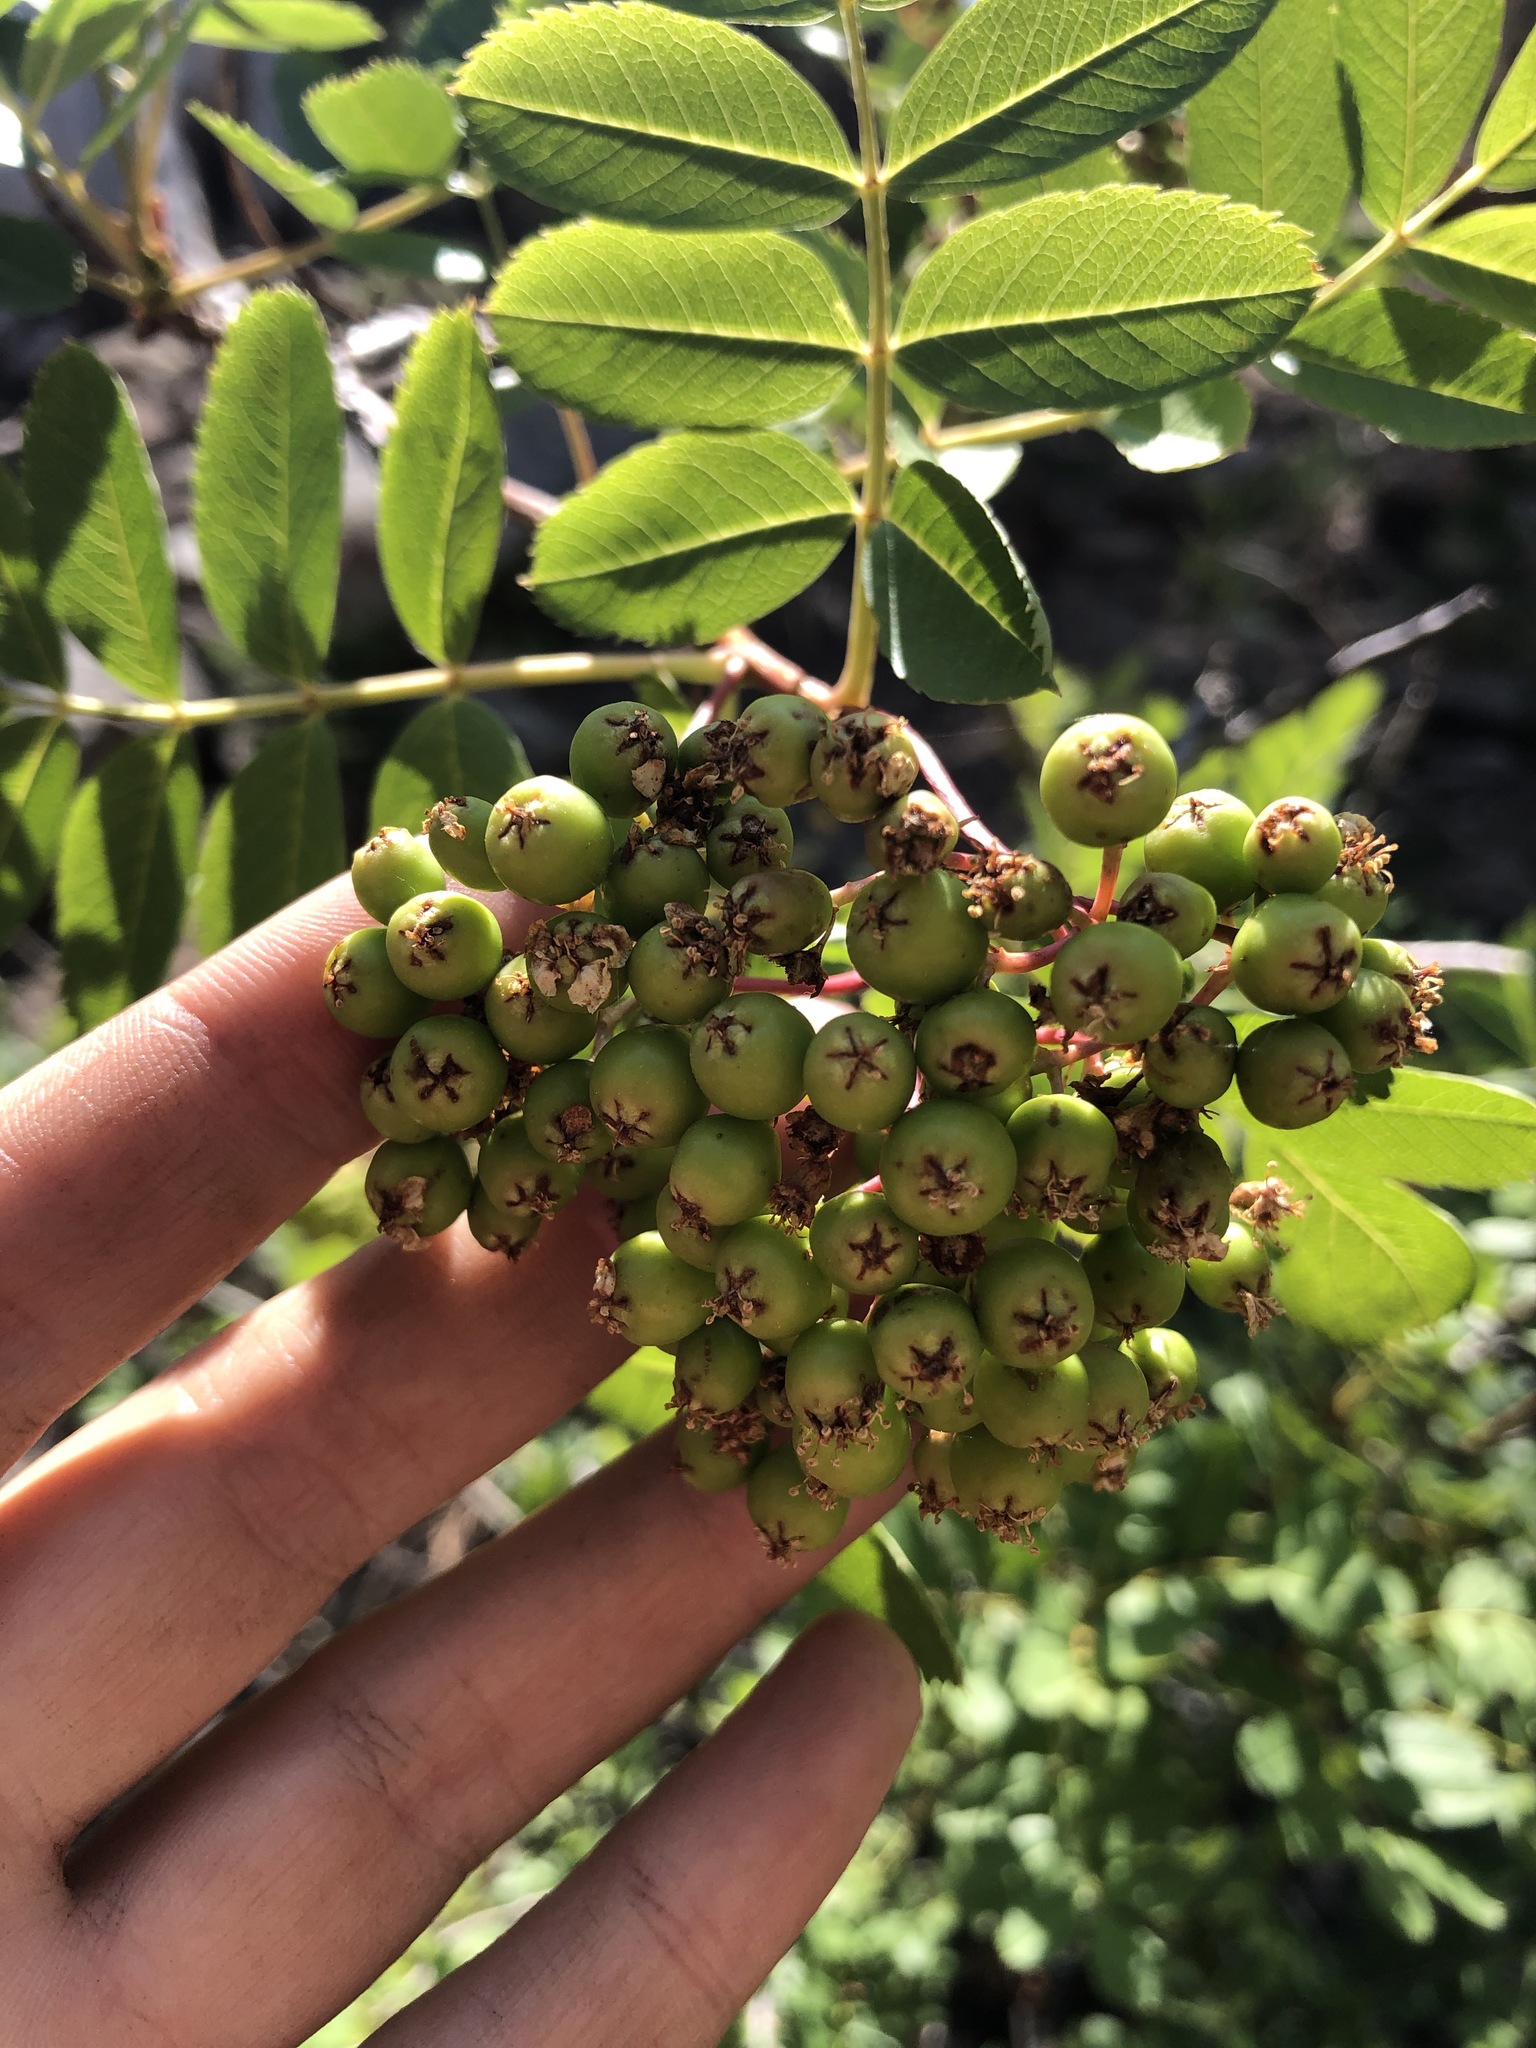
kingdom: Plantae
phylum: Tracheophyta
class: Magnoliopsida
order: Rosales
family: Rosaceae
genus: Sorbus
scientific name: Sorbus californica
